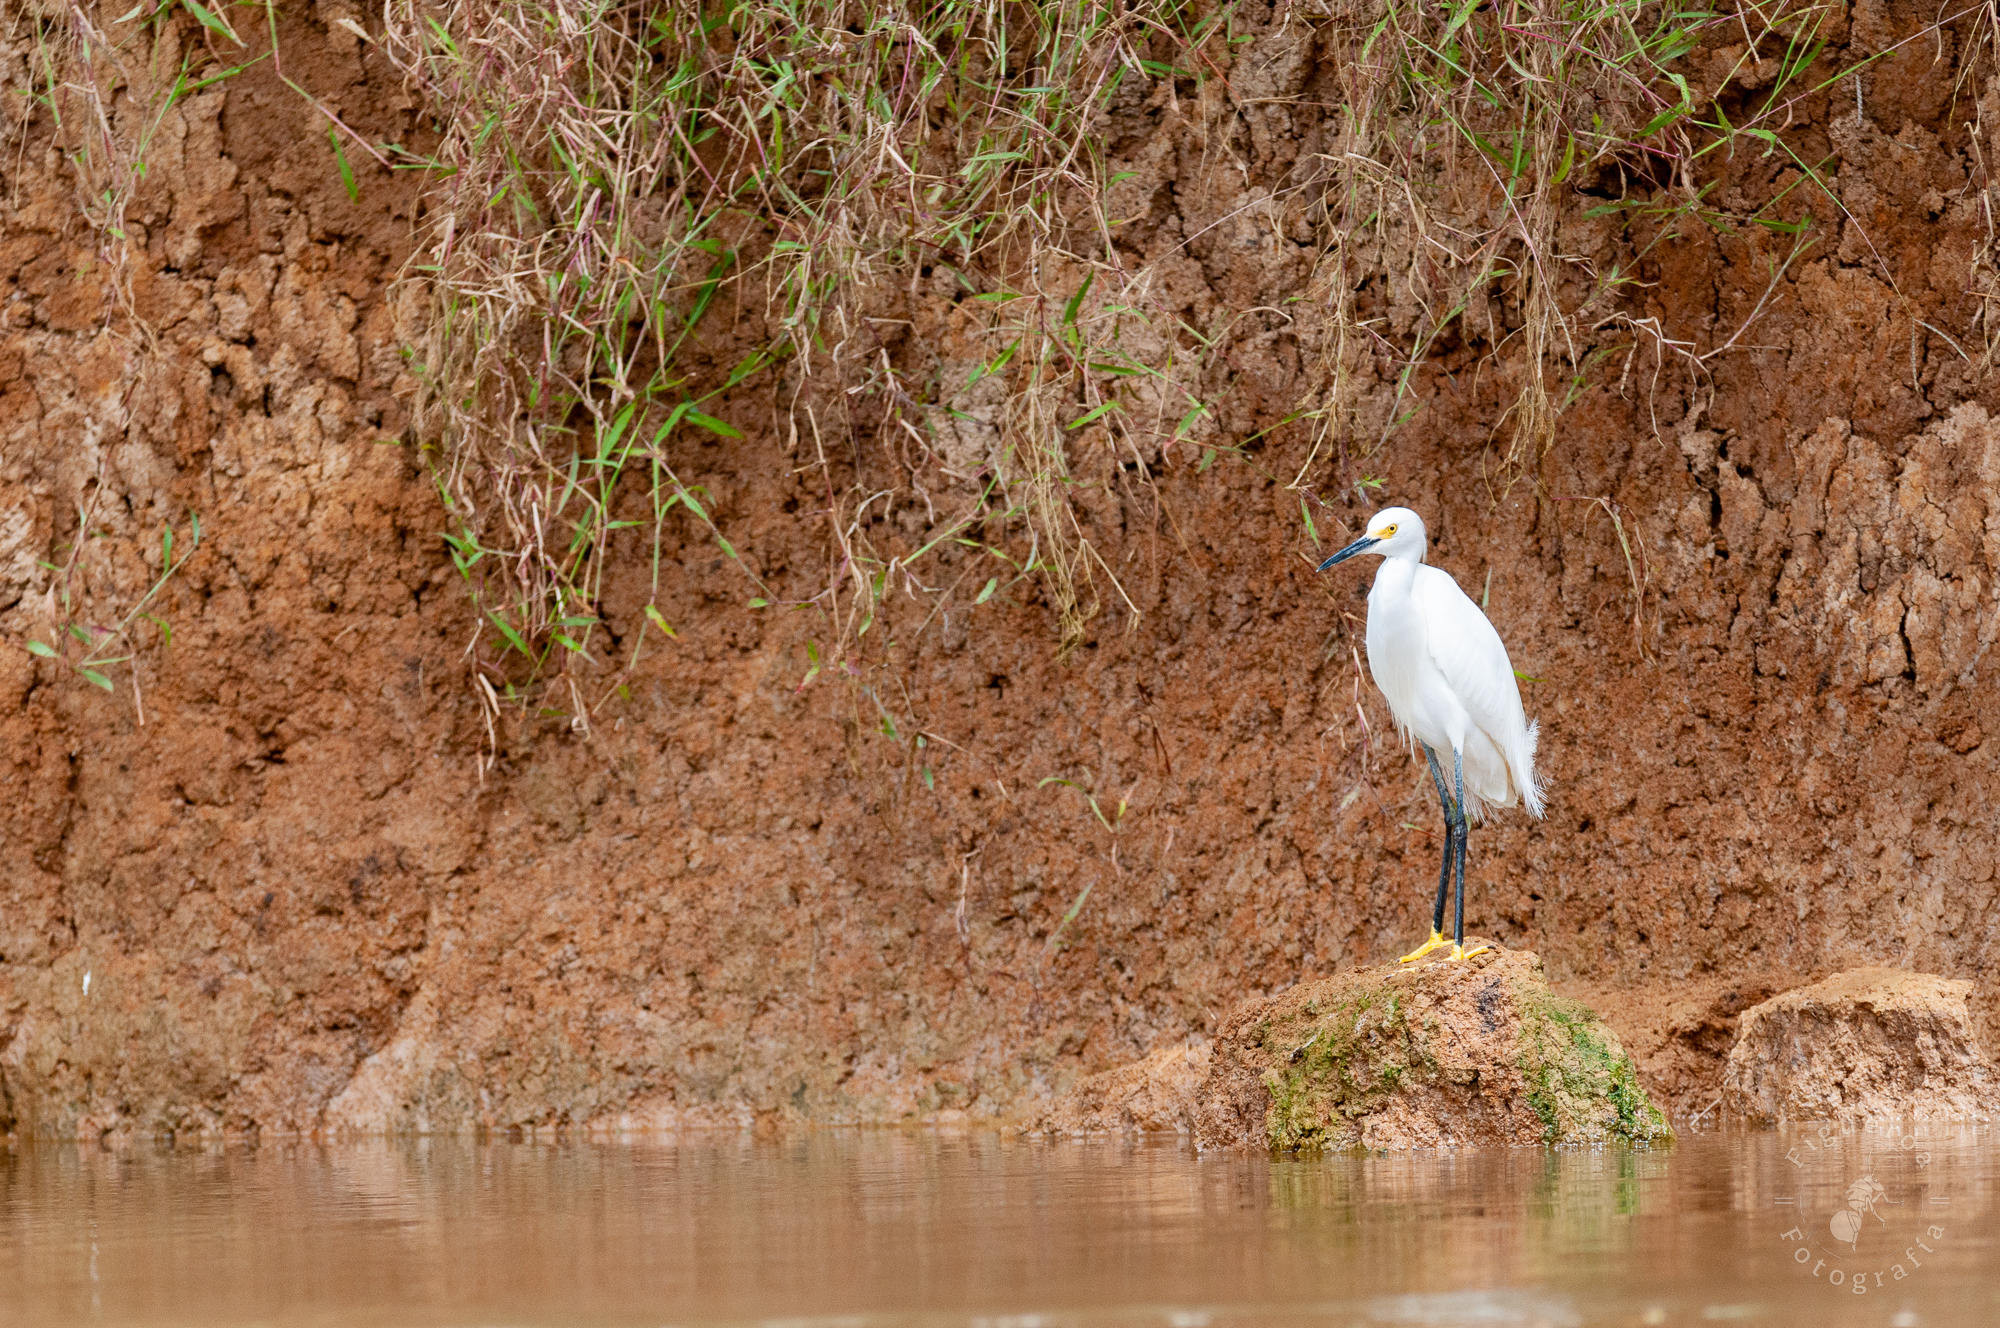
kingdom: Animalia
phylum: Chordata
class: Aves
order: Pelecaniformes
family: Ardeidae
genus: Egretta
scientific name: Egretta thula
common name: Snowy egret
